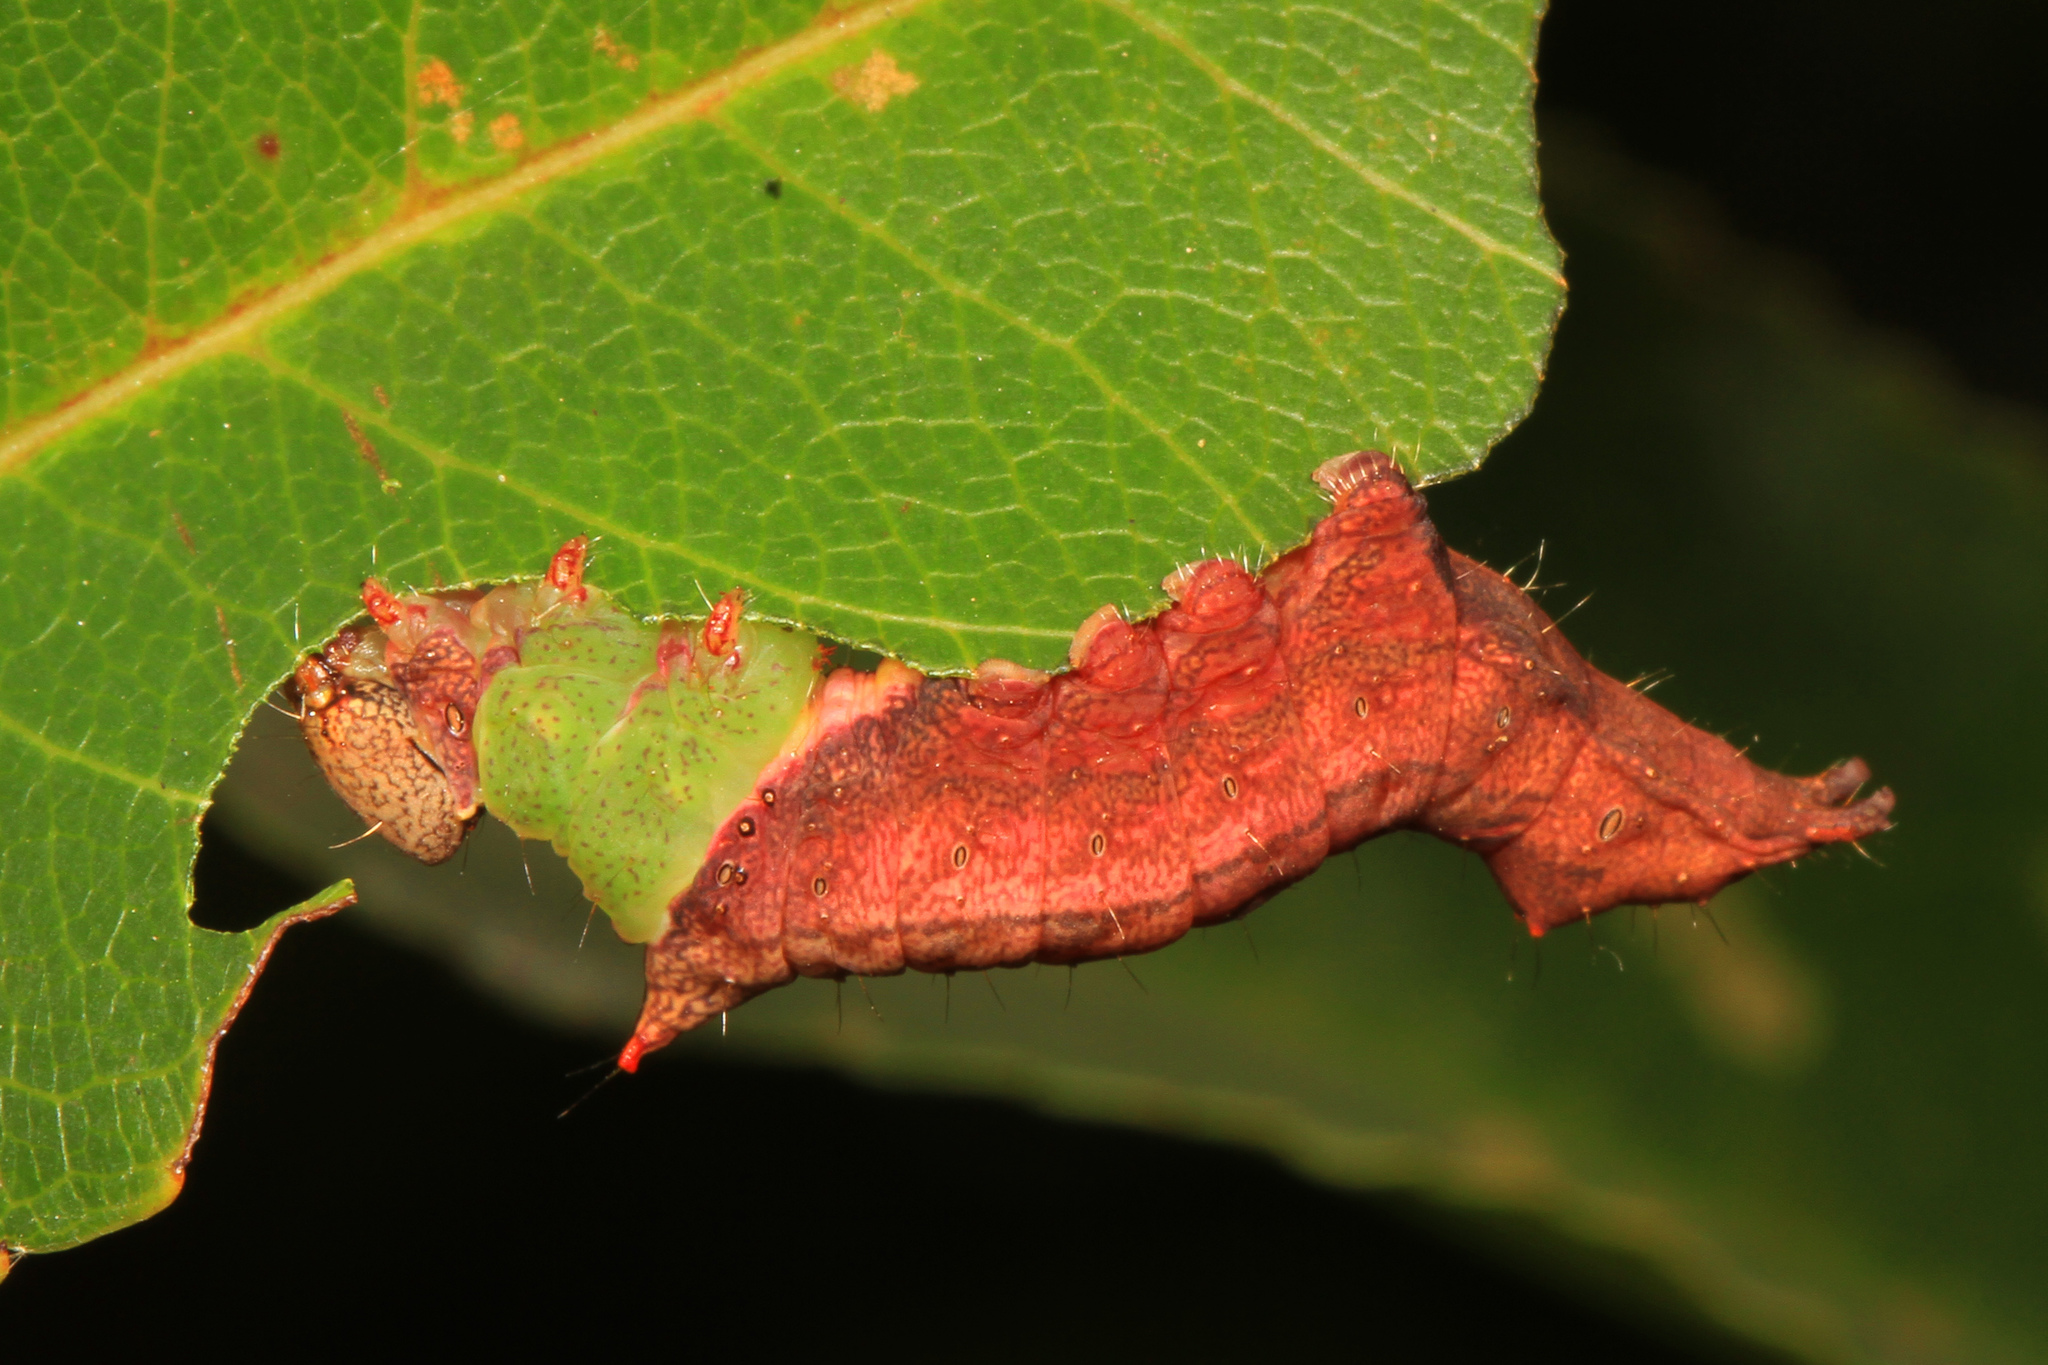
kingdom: Animalia
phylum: Arthropoda
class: Insecta
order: Lepidoptera
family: Notodontidae
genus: Schizura
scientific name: Schizura
